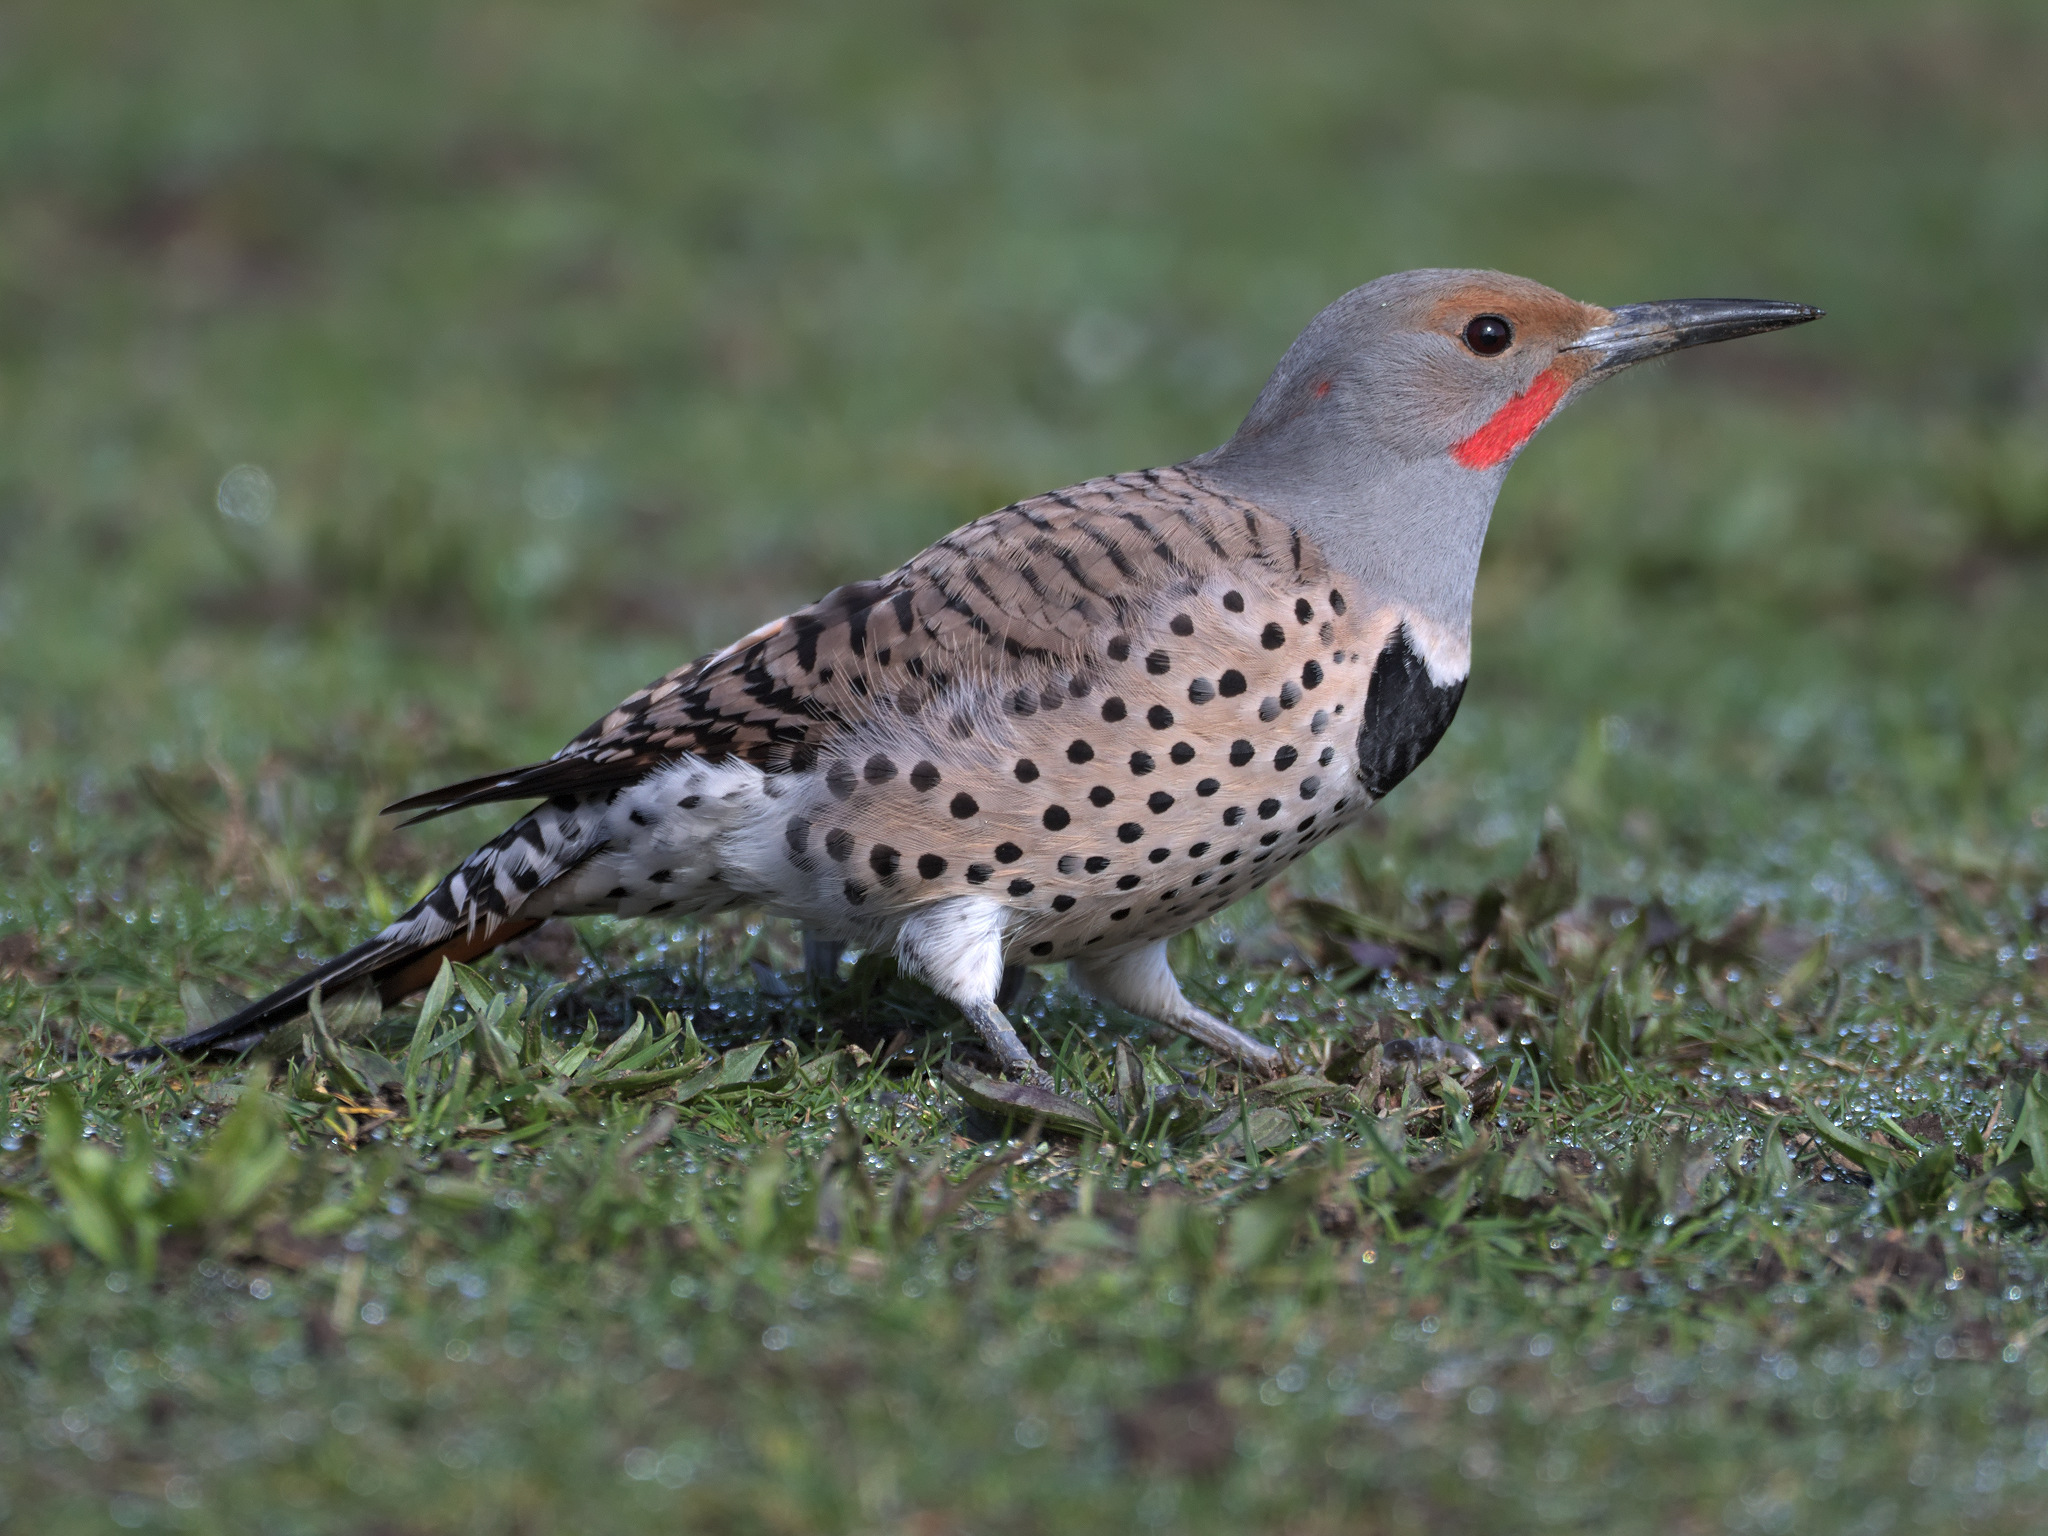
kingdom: Animalia
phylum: Chordata
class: Aves
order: Piciformes
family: Picidae
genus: Colaptes
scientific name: Colaptes auratus
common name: Northern flicker
